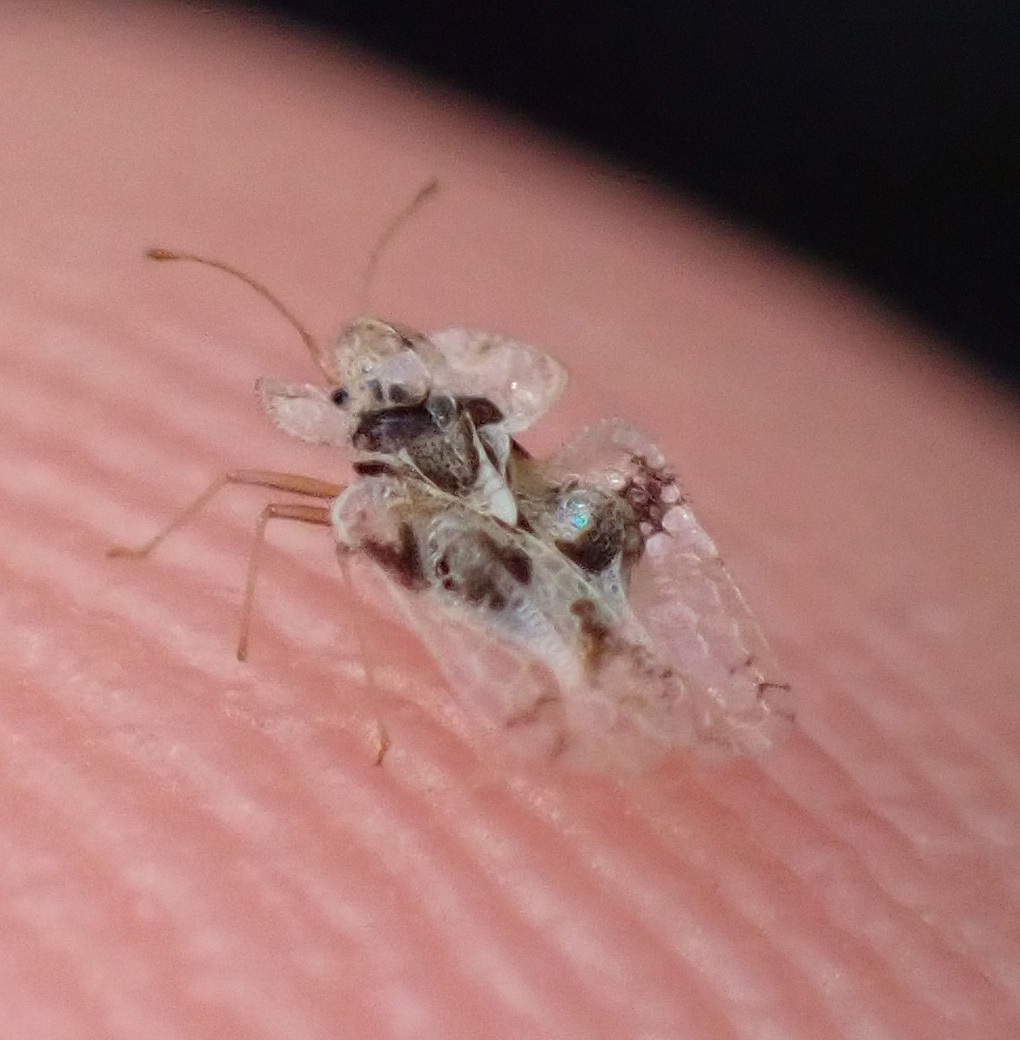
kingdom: Animalia
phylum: Arthropoda
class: Insecta
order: Hemiptera
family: Tingidae
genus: Corythucha
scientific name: Corythucha arcuata
